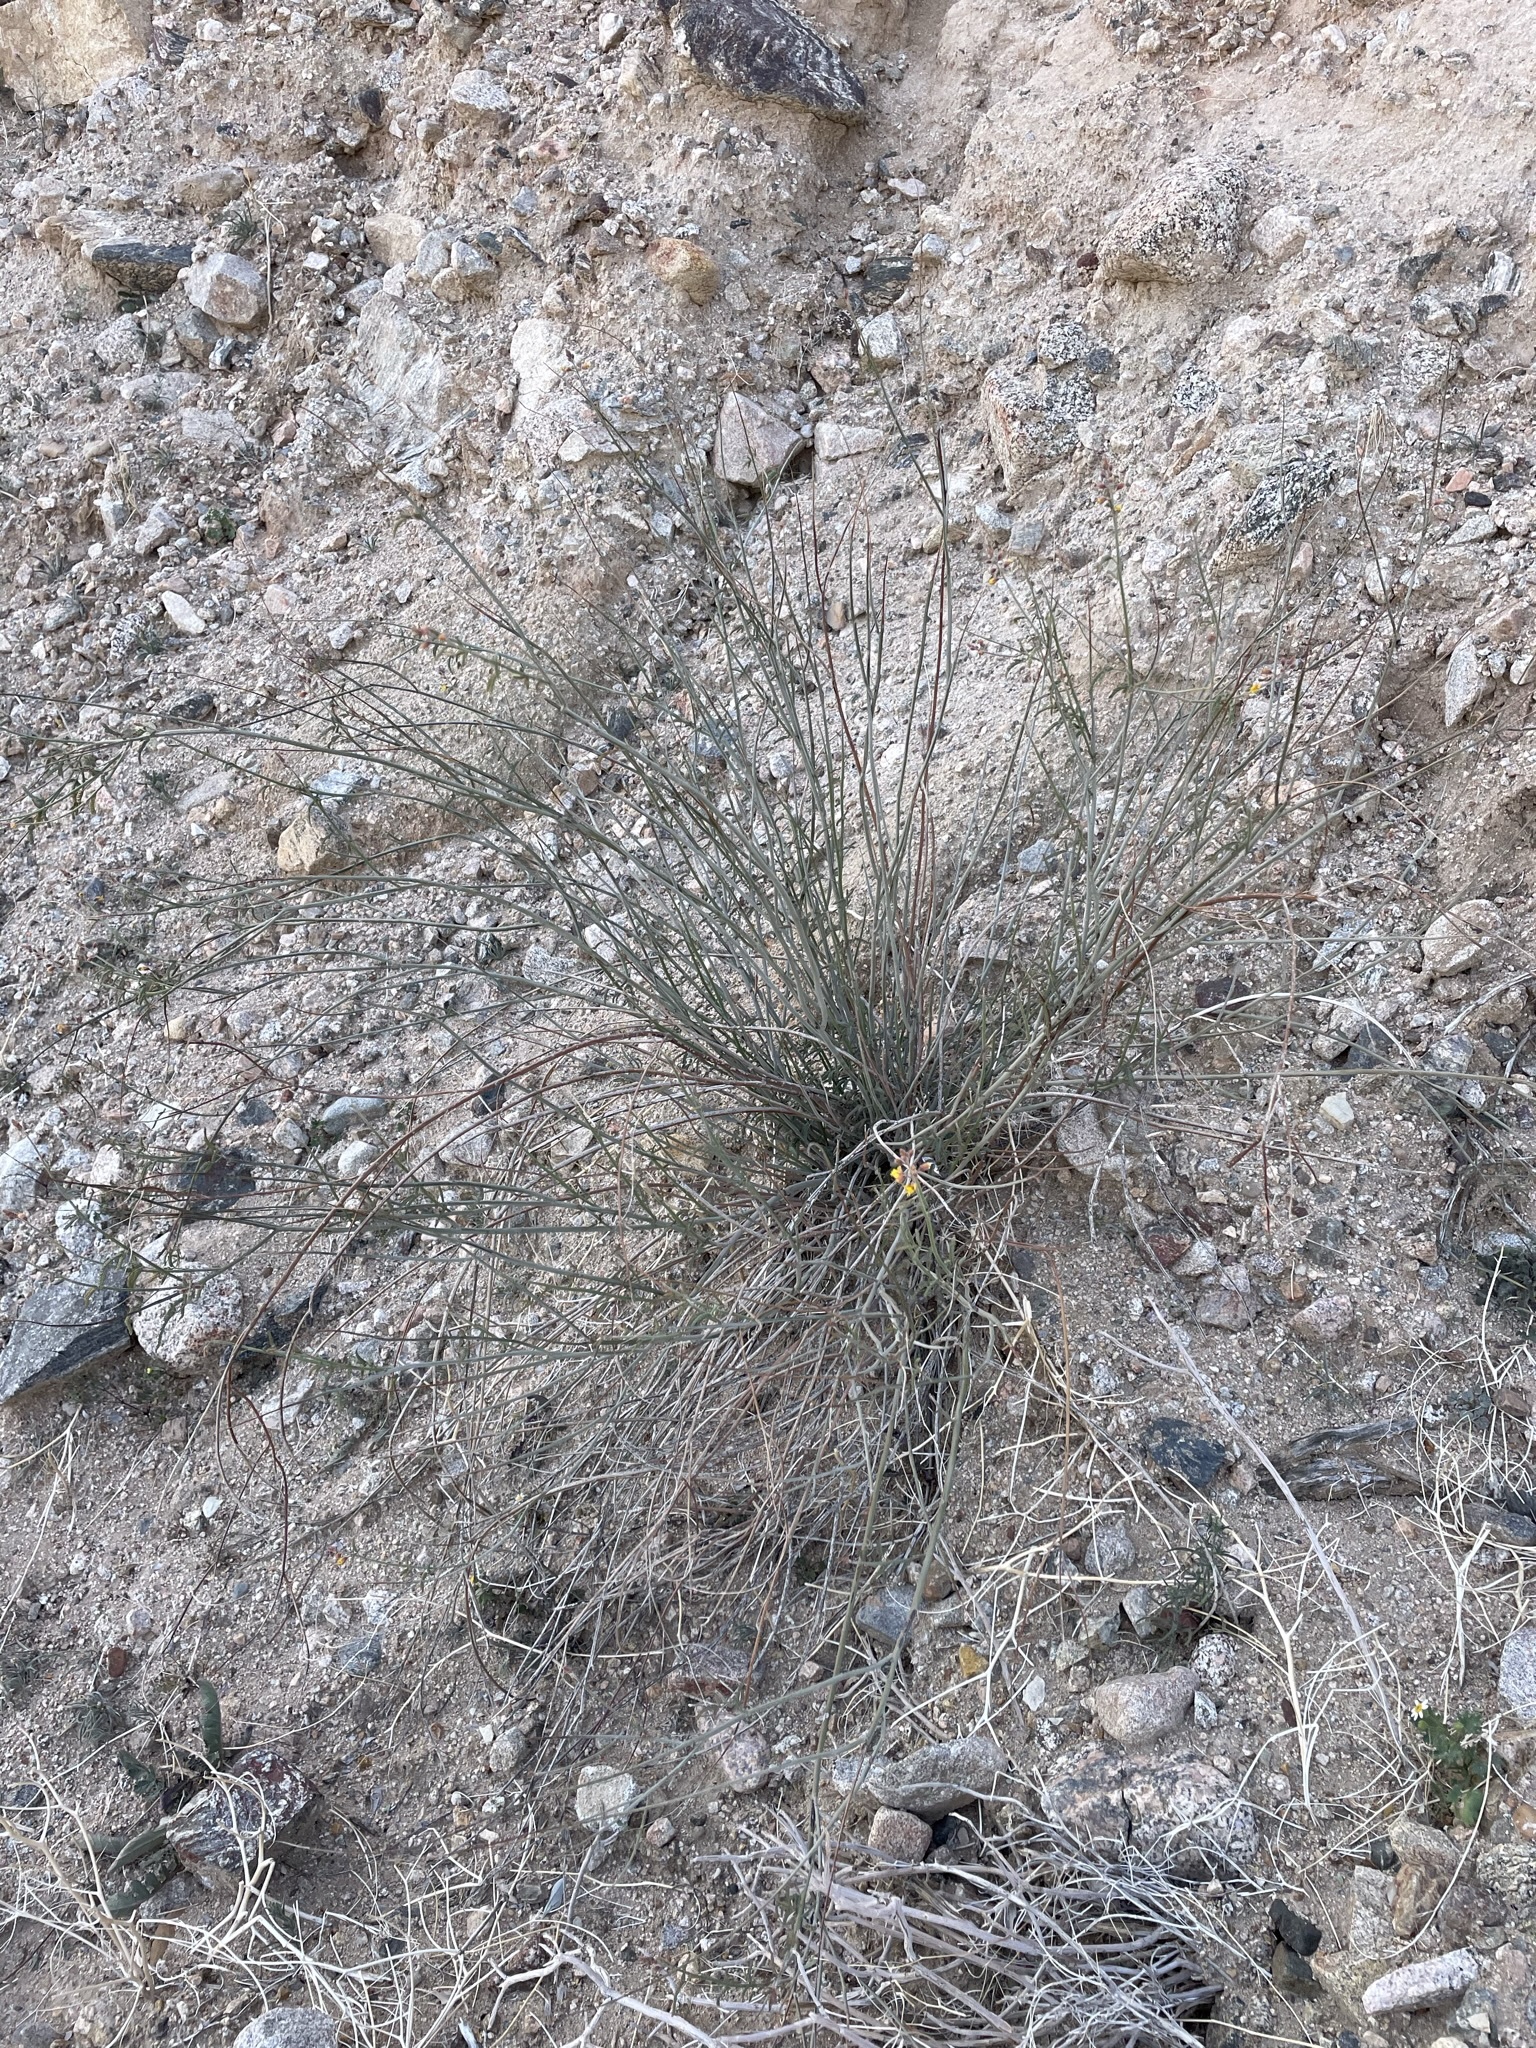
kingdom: Plantae
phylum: Tracheophyta
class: Magnoliopsida
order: Fabales
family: Fabaceae
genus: Hoffmannseggia
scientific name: Hoffmannseggia microphylla
